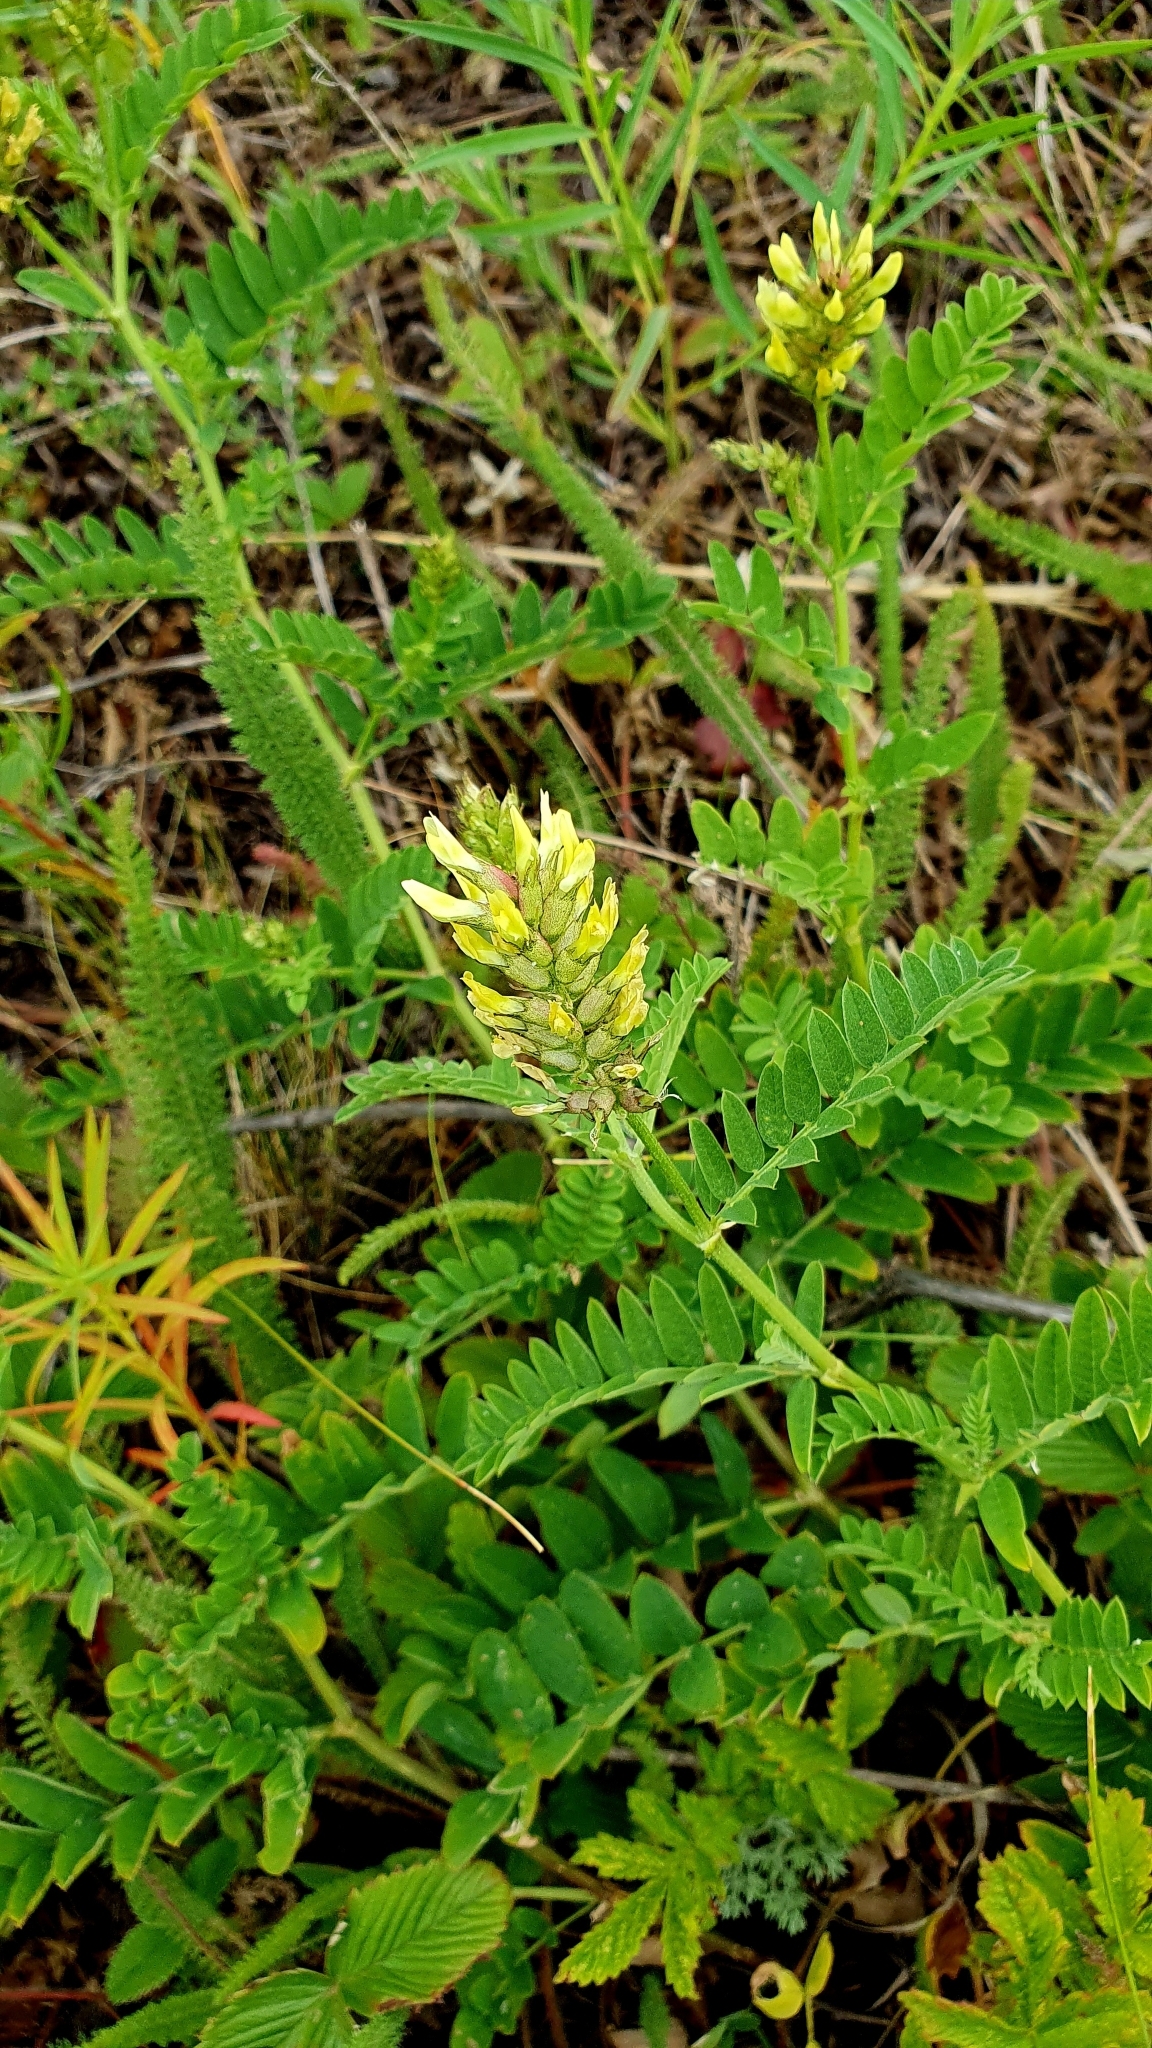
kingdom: Plantae
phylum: Tracheophyta
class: Magnoliopsida
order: Fabales
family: Fabaceae
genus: Astragalus
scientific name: Astragalus cicer
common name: Chick-pea milk-vetch
